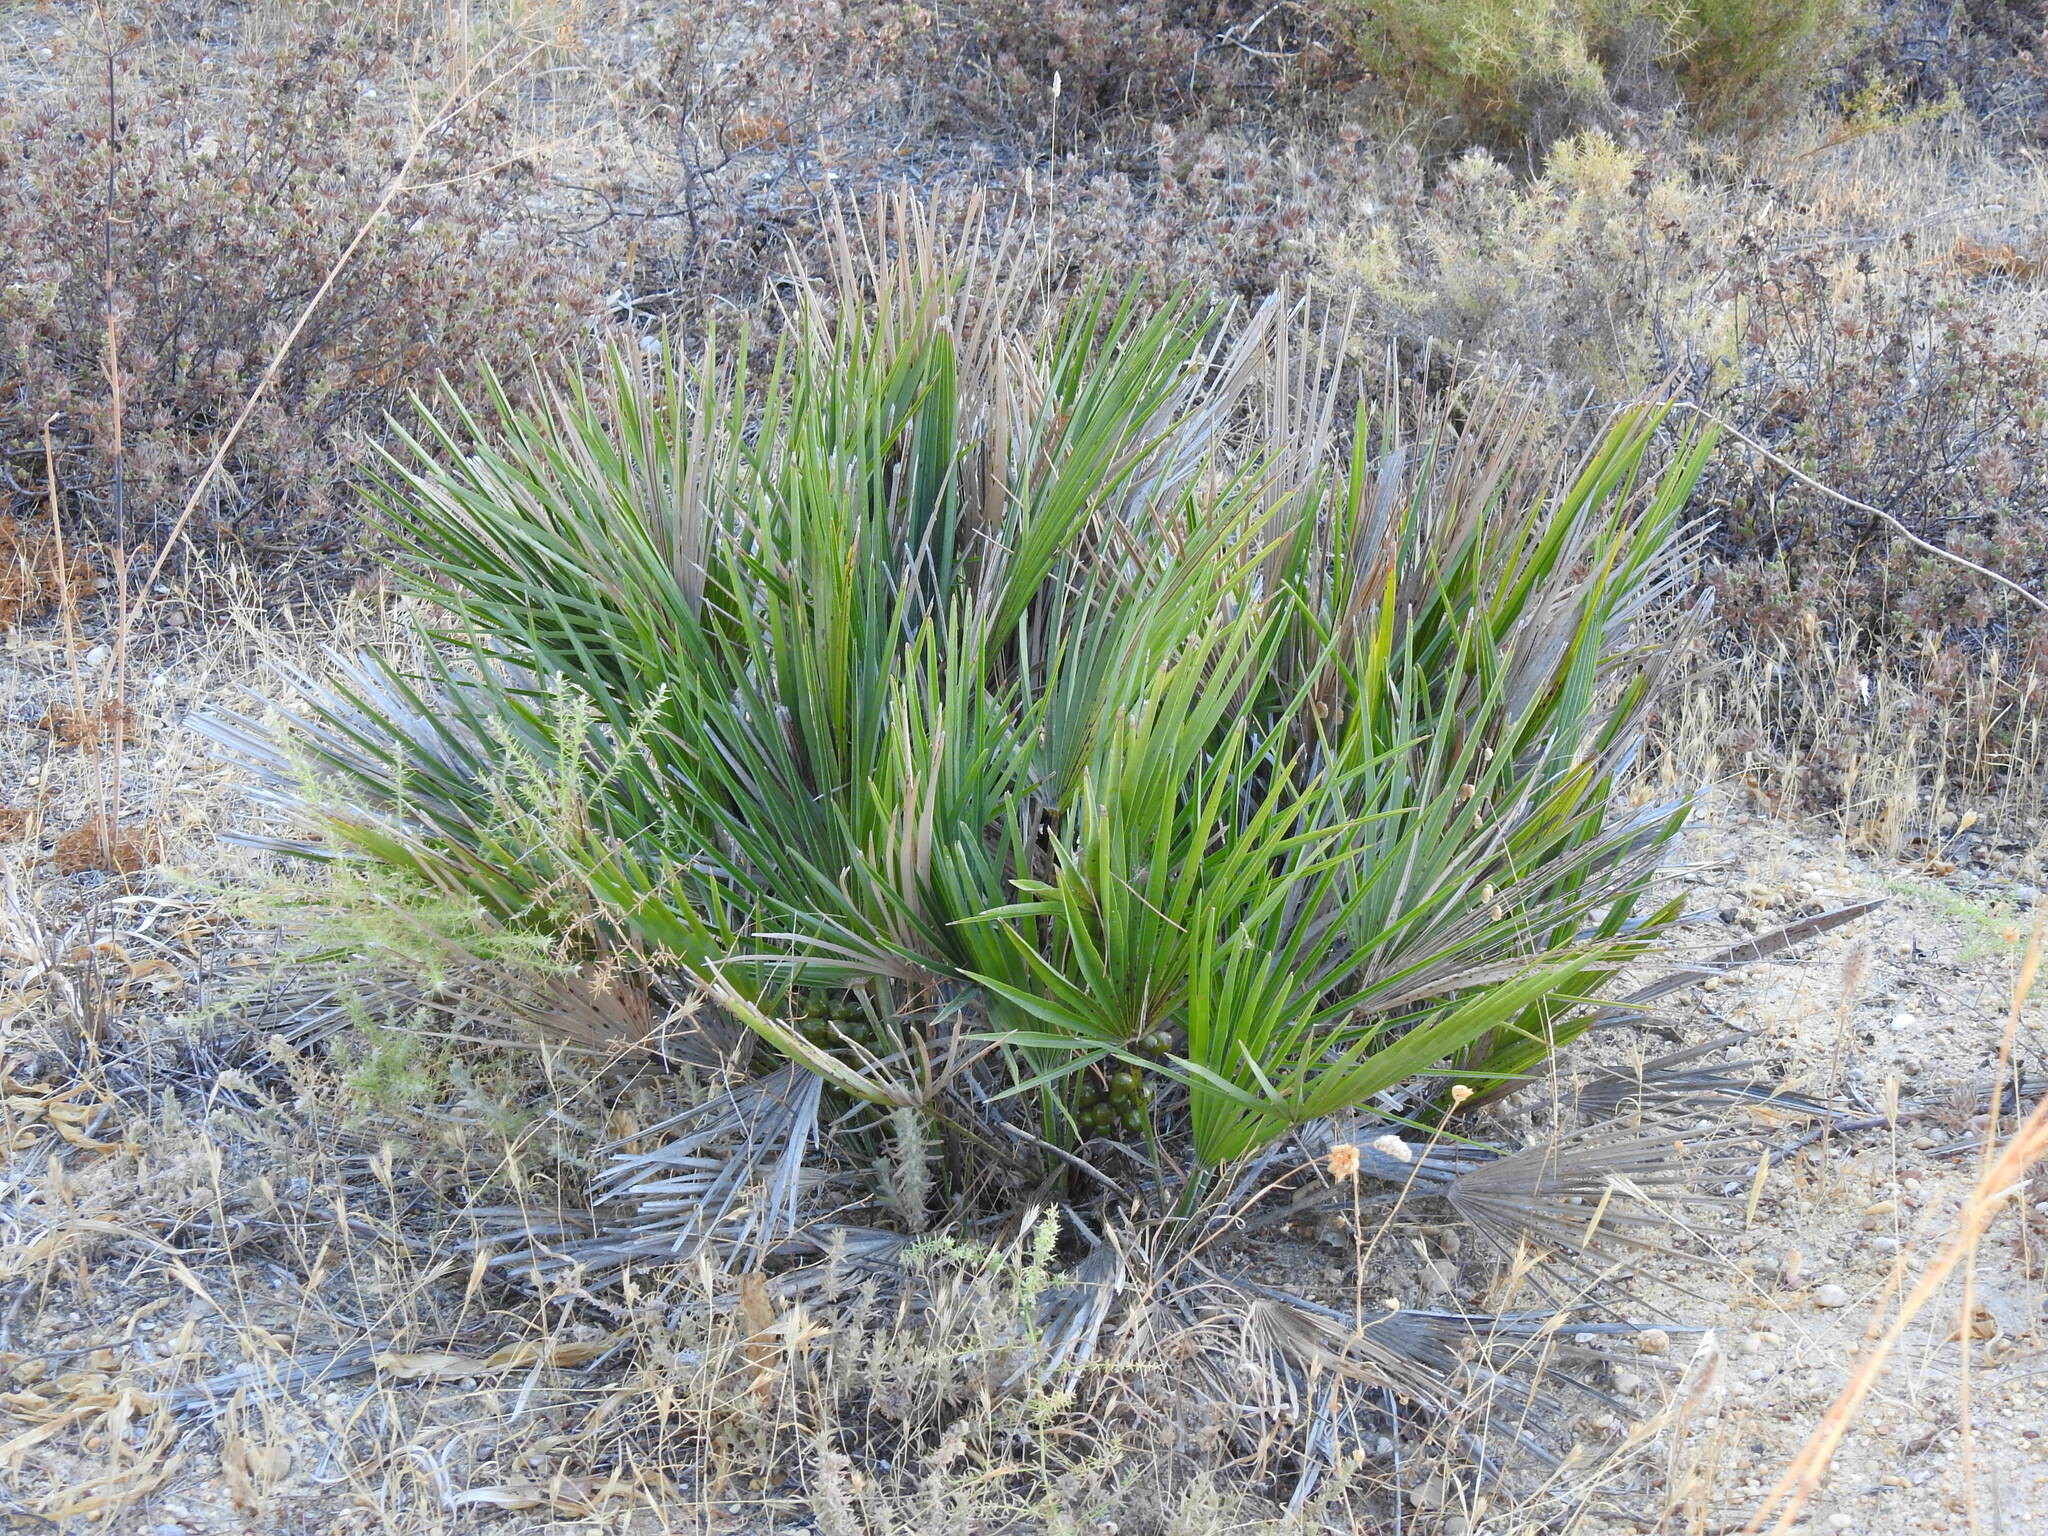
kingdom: Plantae
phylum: Tracheophyta
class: Liliopsida
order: Arecales
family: Arecaceae
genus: Chamaerops
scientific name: Chamaerops humilis
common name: Dwarf fan palm
